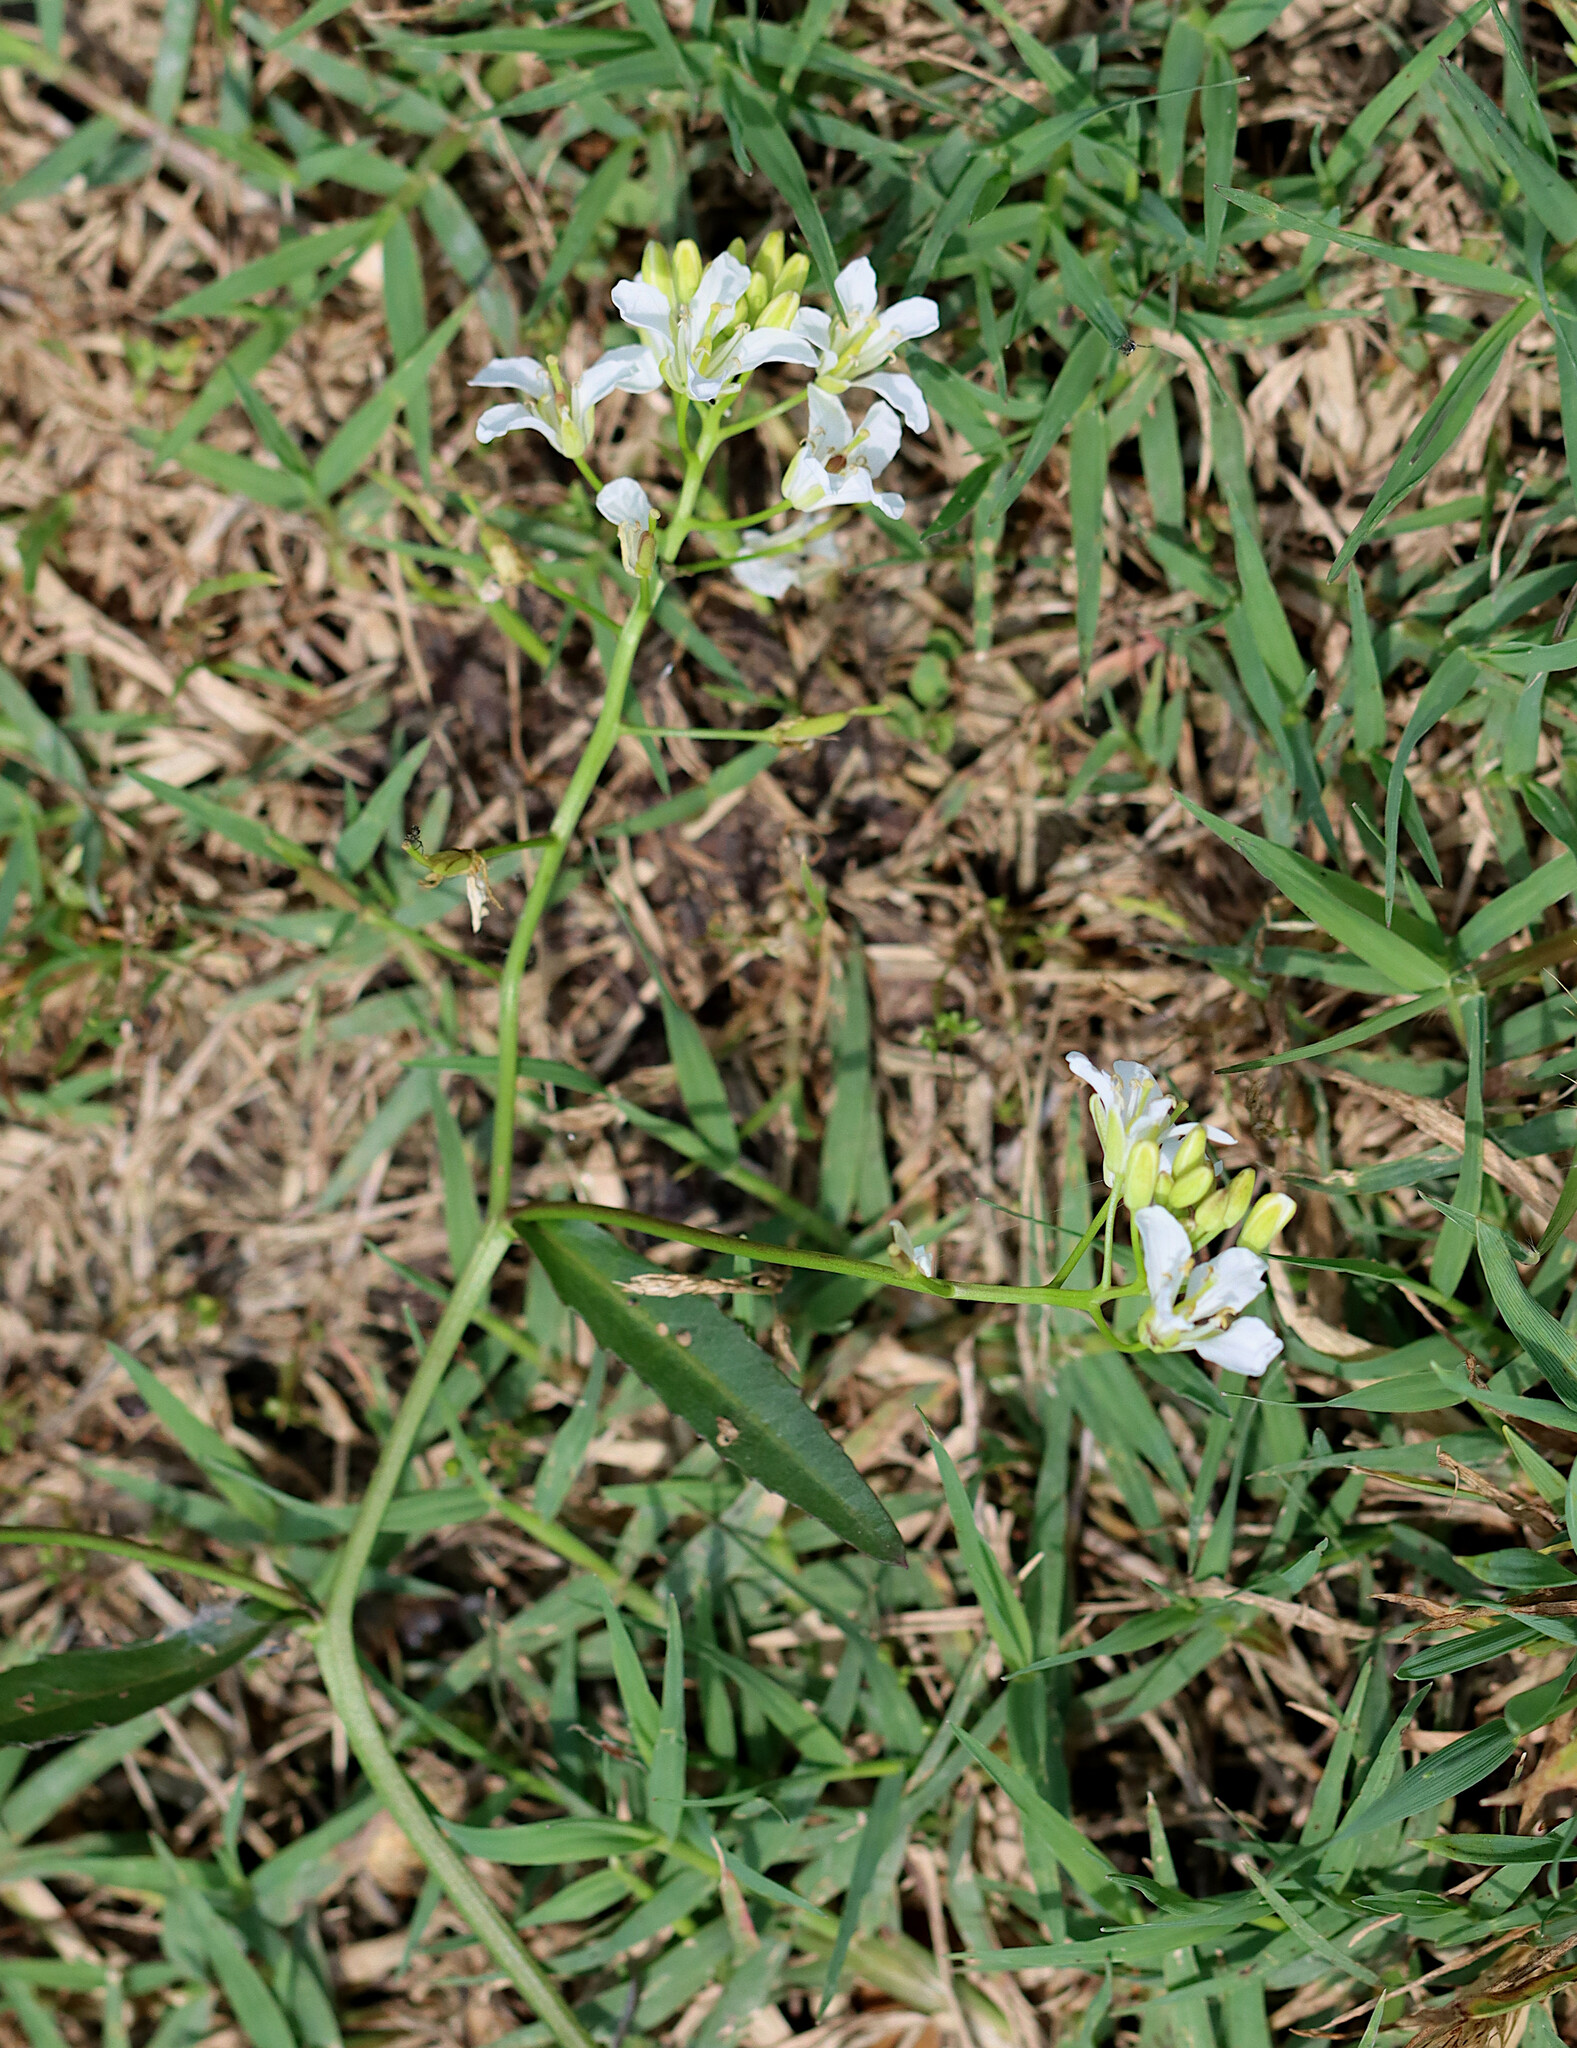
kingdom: Plantae
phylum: Tracheophyta
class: Magnoliopsida
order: Brassicales
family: Brassicaceae
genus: Rorippa
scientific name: Rorippa aquatica
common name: Lake watercress
